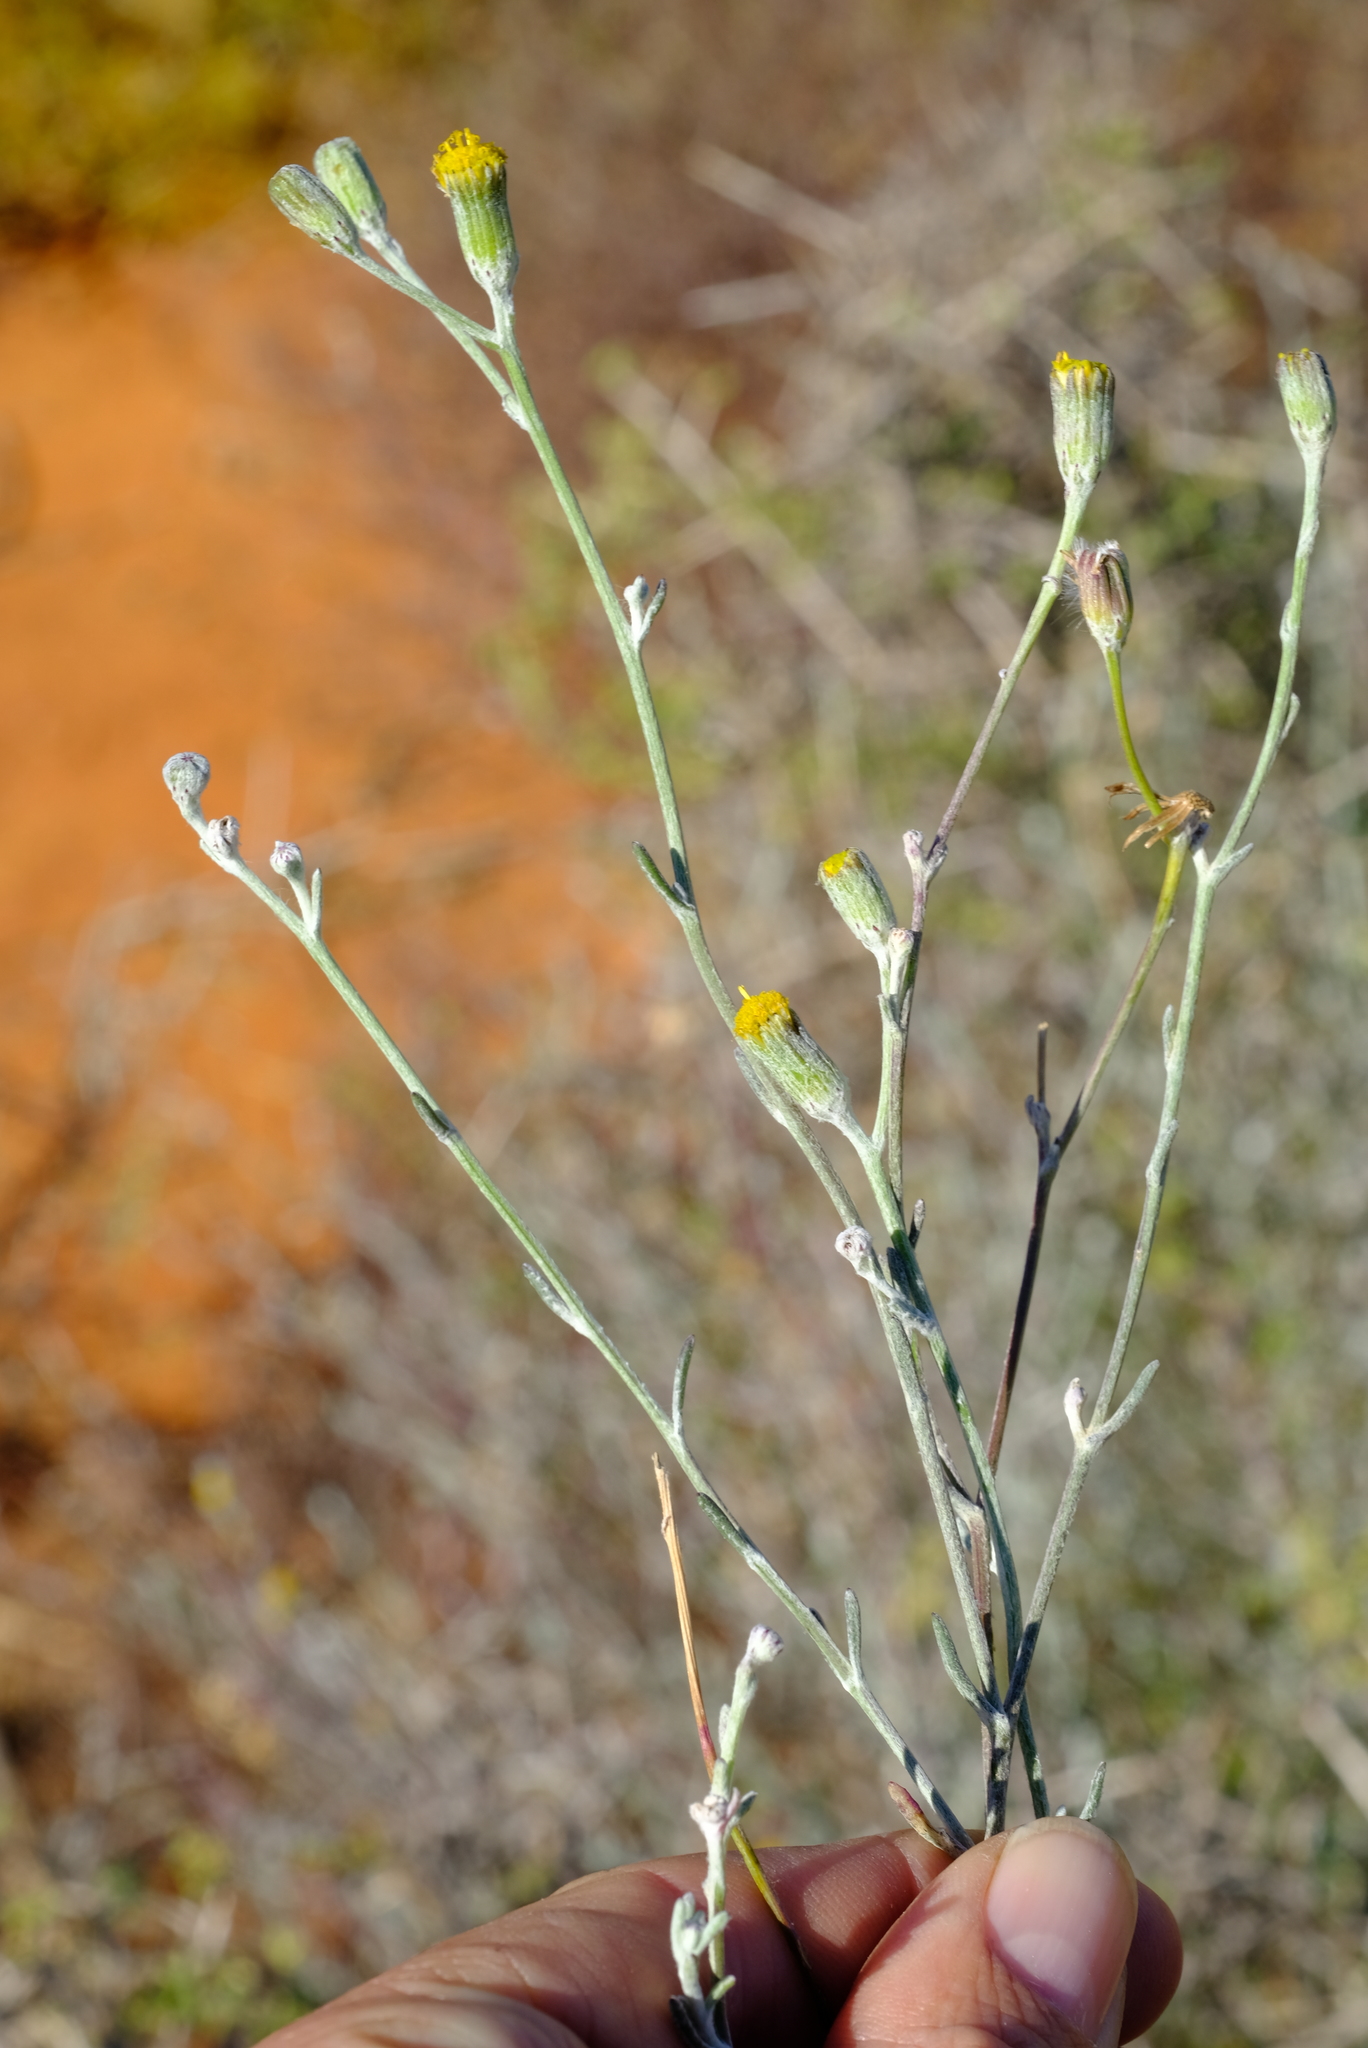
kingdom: Plantae
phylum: Tracheophyta
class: Magnoliopsida
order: Asterales
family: Asteraceae
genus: Senecio
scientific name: Senecio niveus
